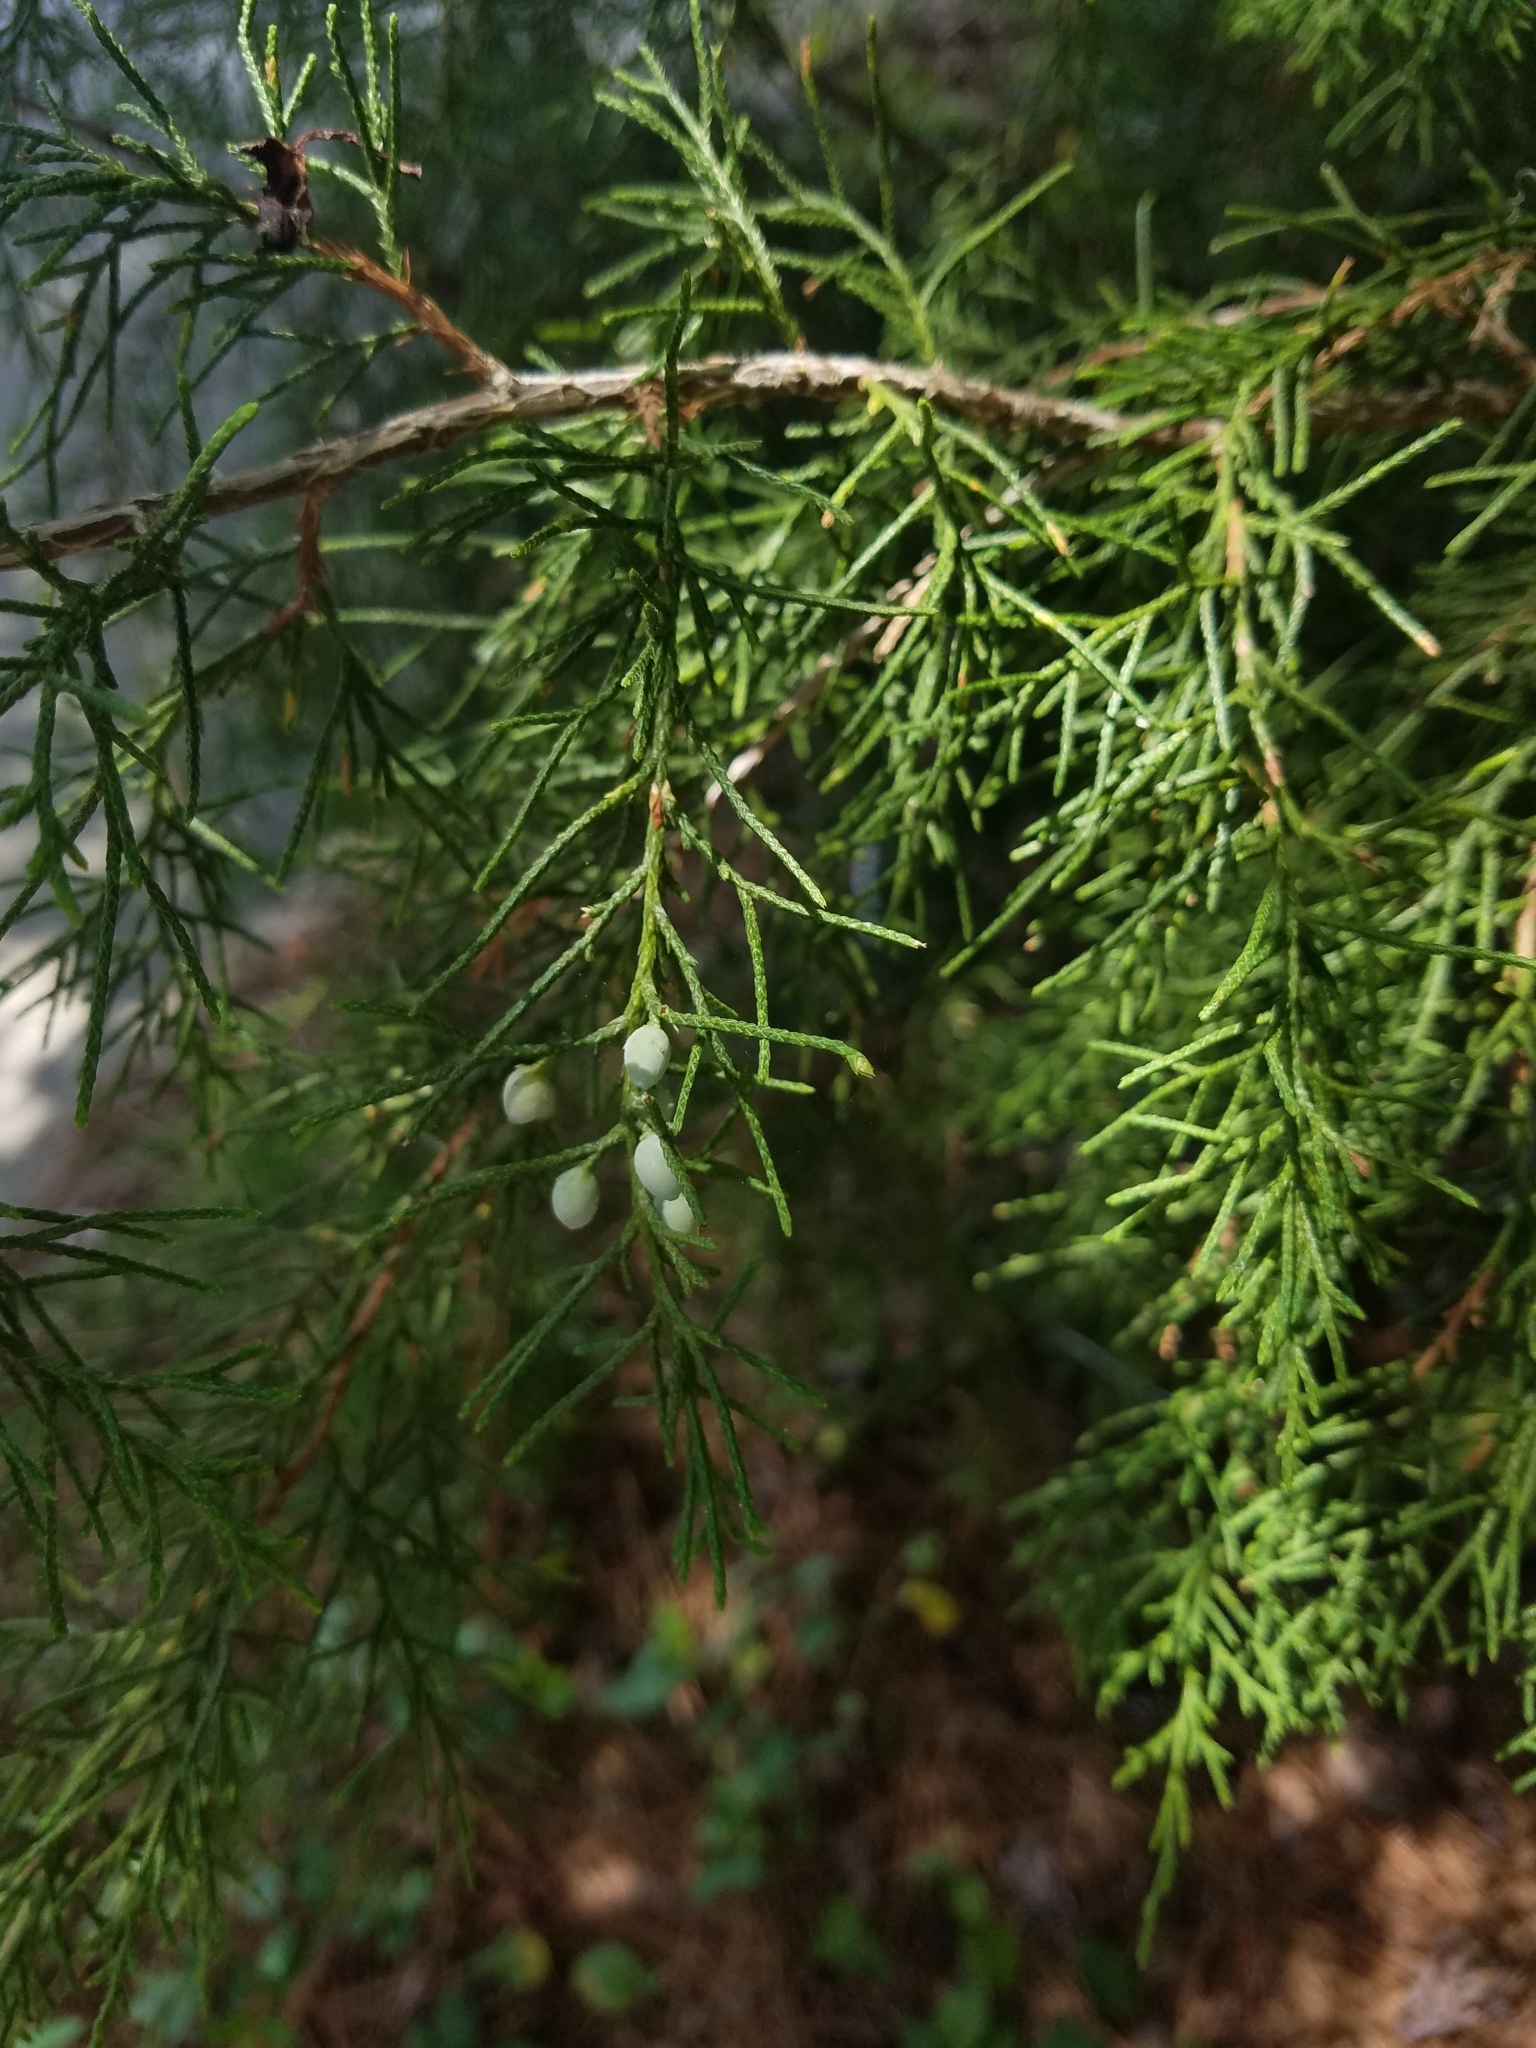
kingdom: Plantae
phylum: Tracheophyta
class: Pinopsida
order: Pinales
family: Cupressaceae
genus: Juniperus
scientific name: Juniperus virginiana
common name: Red juniper
